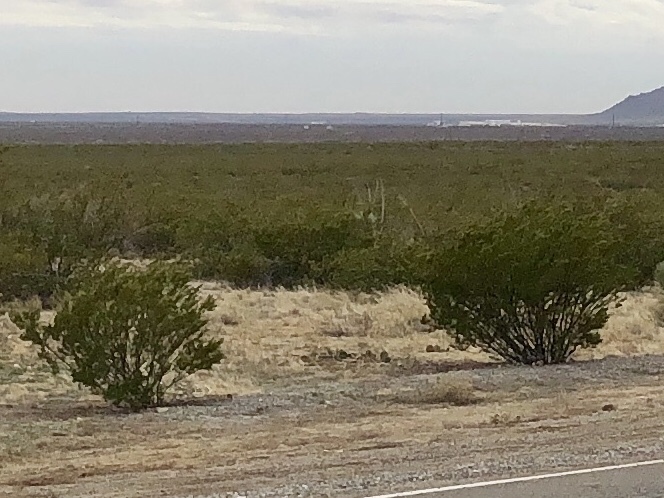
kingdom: Plantae
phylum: Tracheophyta
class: Magnoliopsida
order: Zygophyllales
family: Zygophyllaceae
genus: Larrea
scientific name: Larrea tridentata
